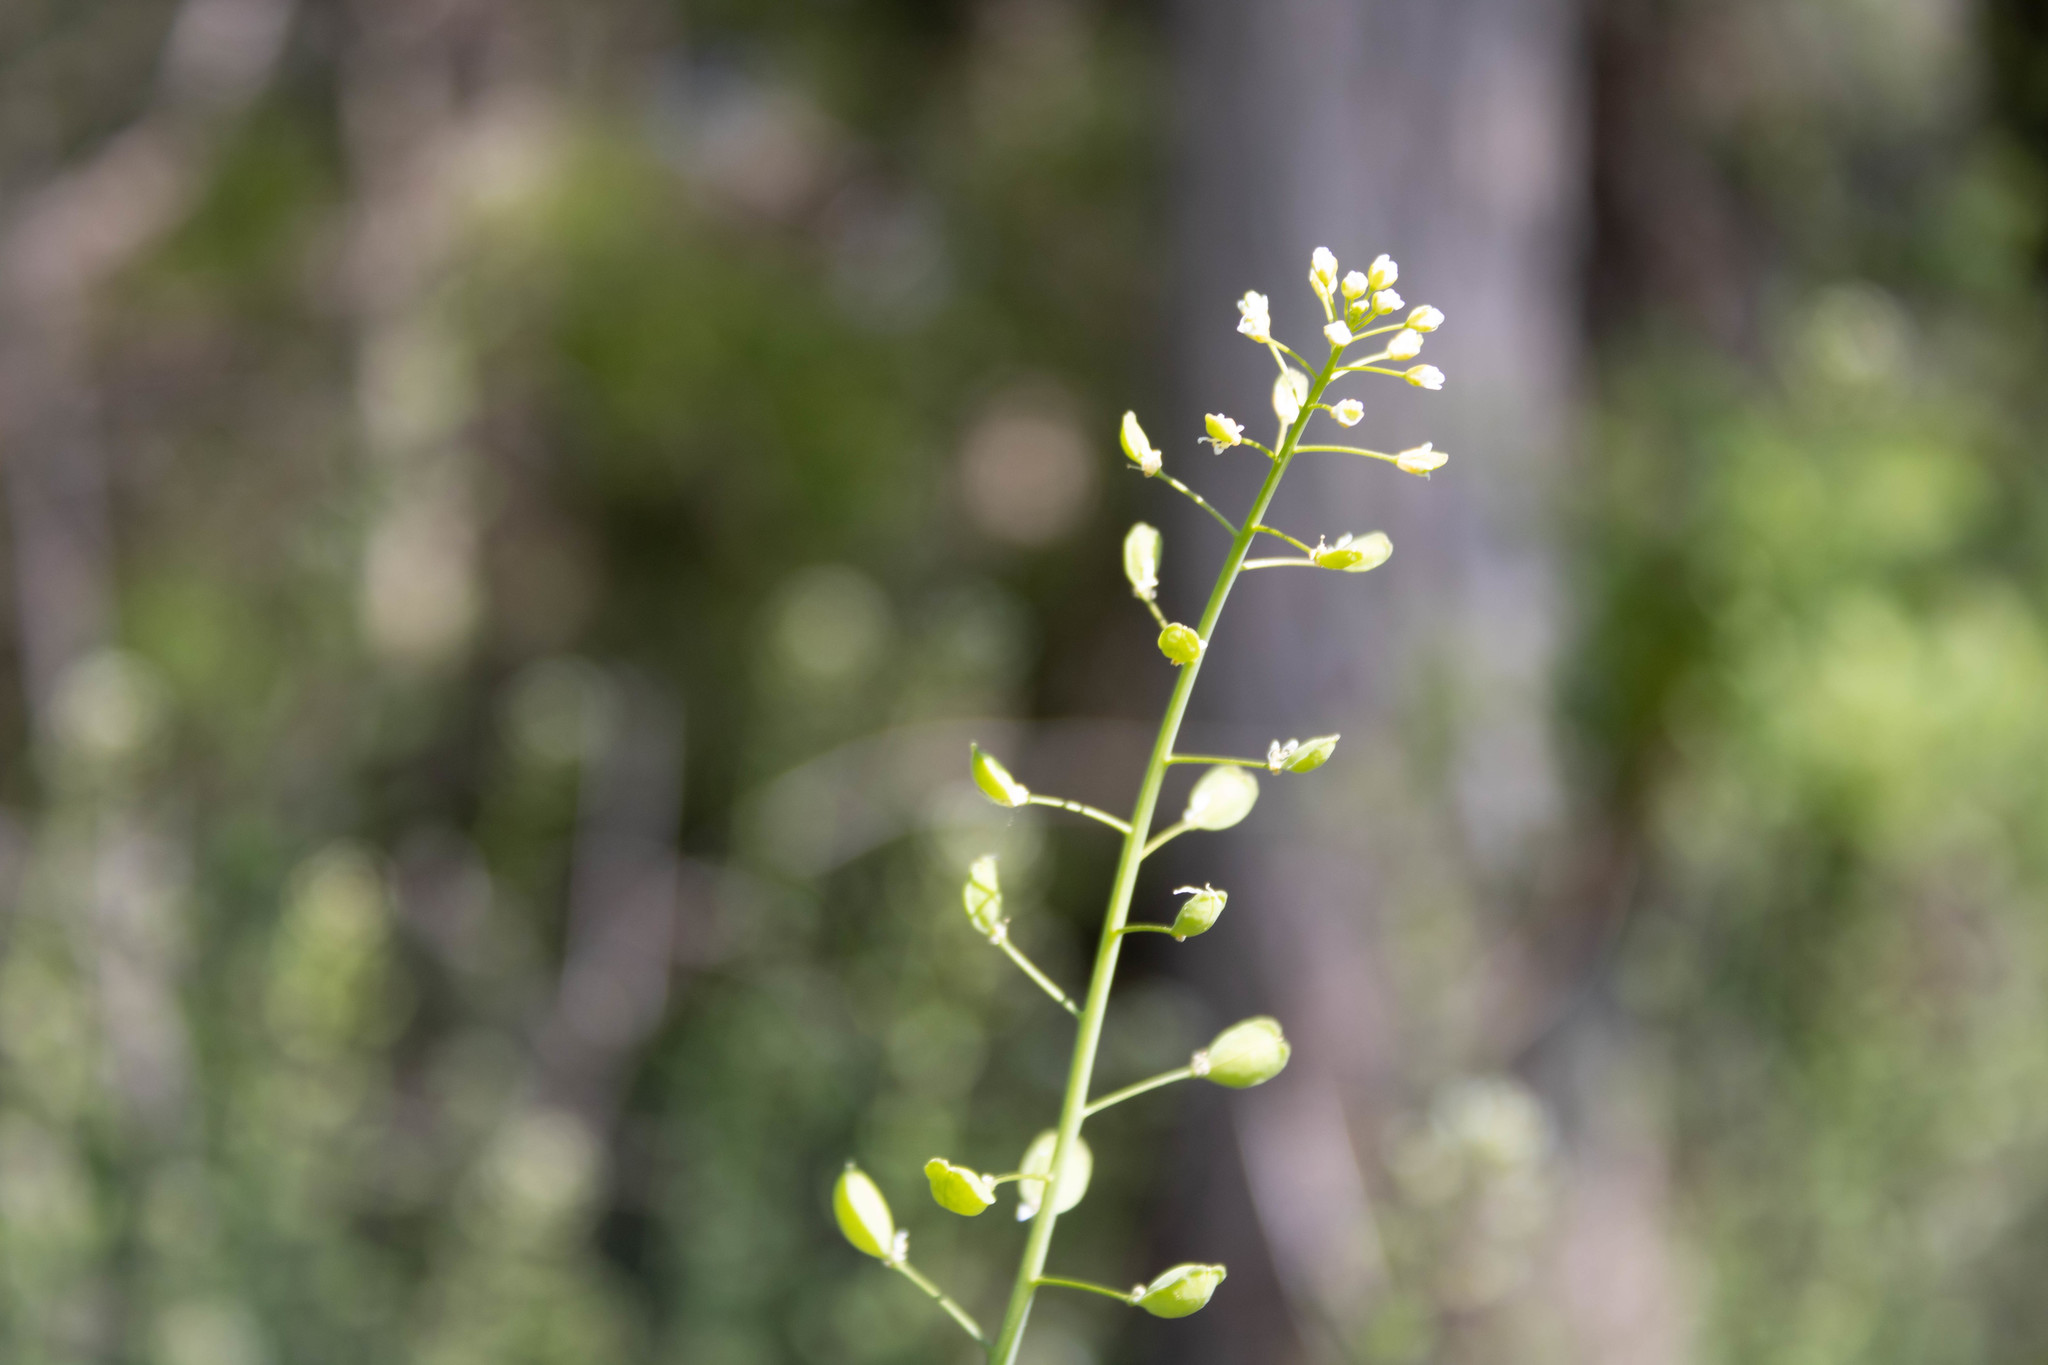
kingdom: Plantae
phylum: Tracheophyta
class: Magnoliopsida
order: Brassicales
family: Brassicaceae
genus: Mummenhoffia
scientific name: Mummenhoffia alliacea
